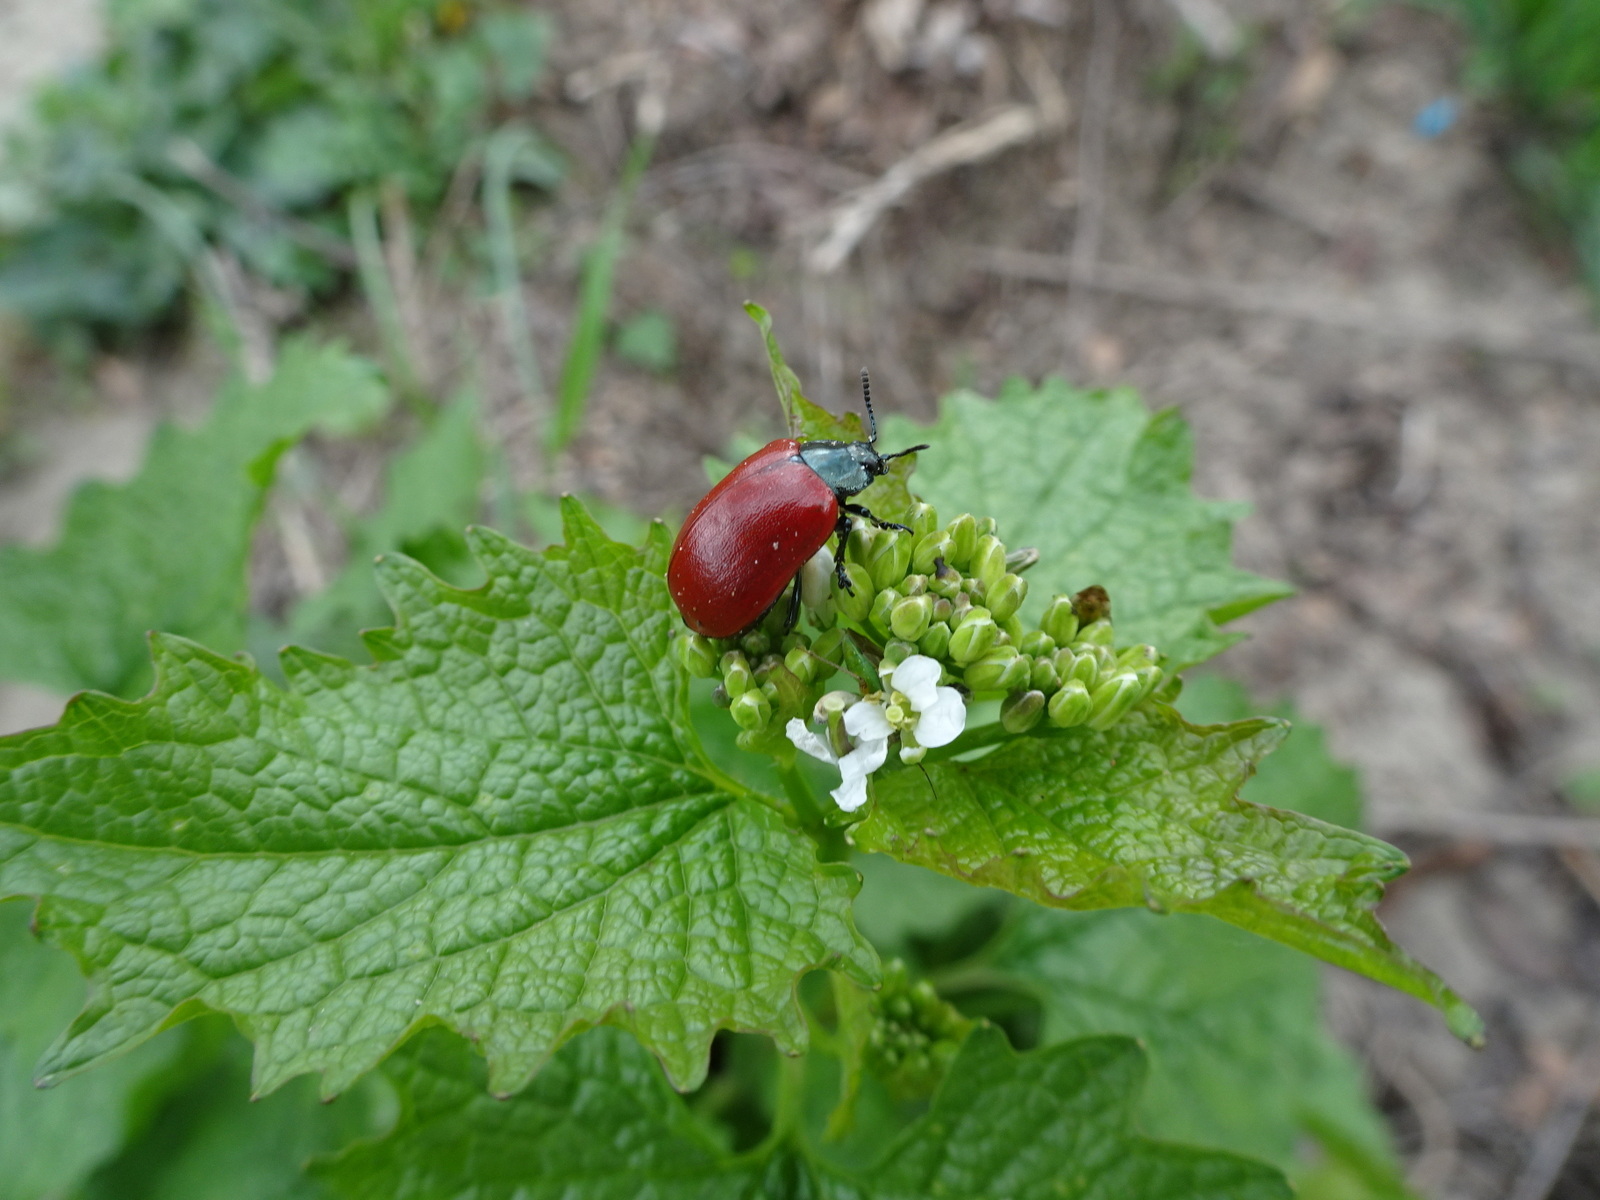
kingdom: Animalia
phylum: Arthropoda
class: Insecta
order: Coleoptera
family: Chrysomelidae
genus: Chrysomela
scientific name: Chrysomela populi
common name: Red poplar leaf beetle
